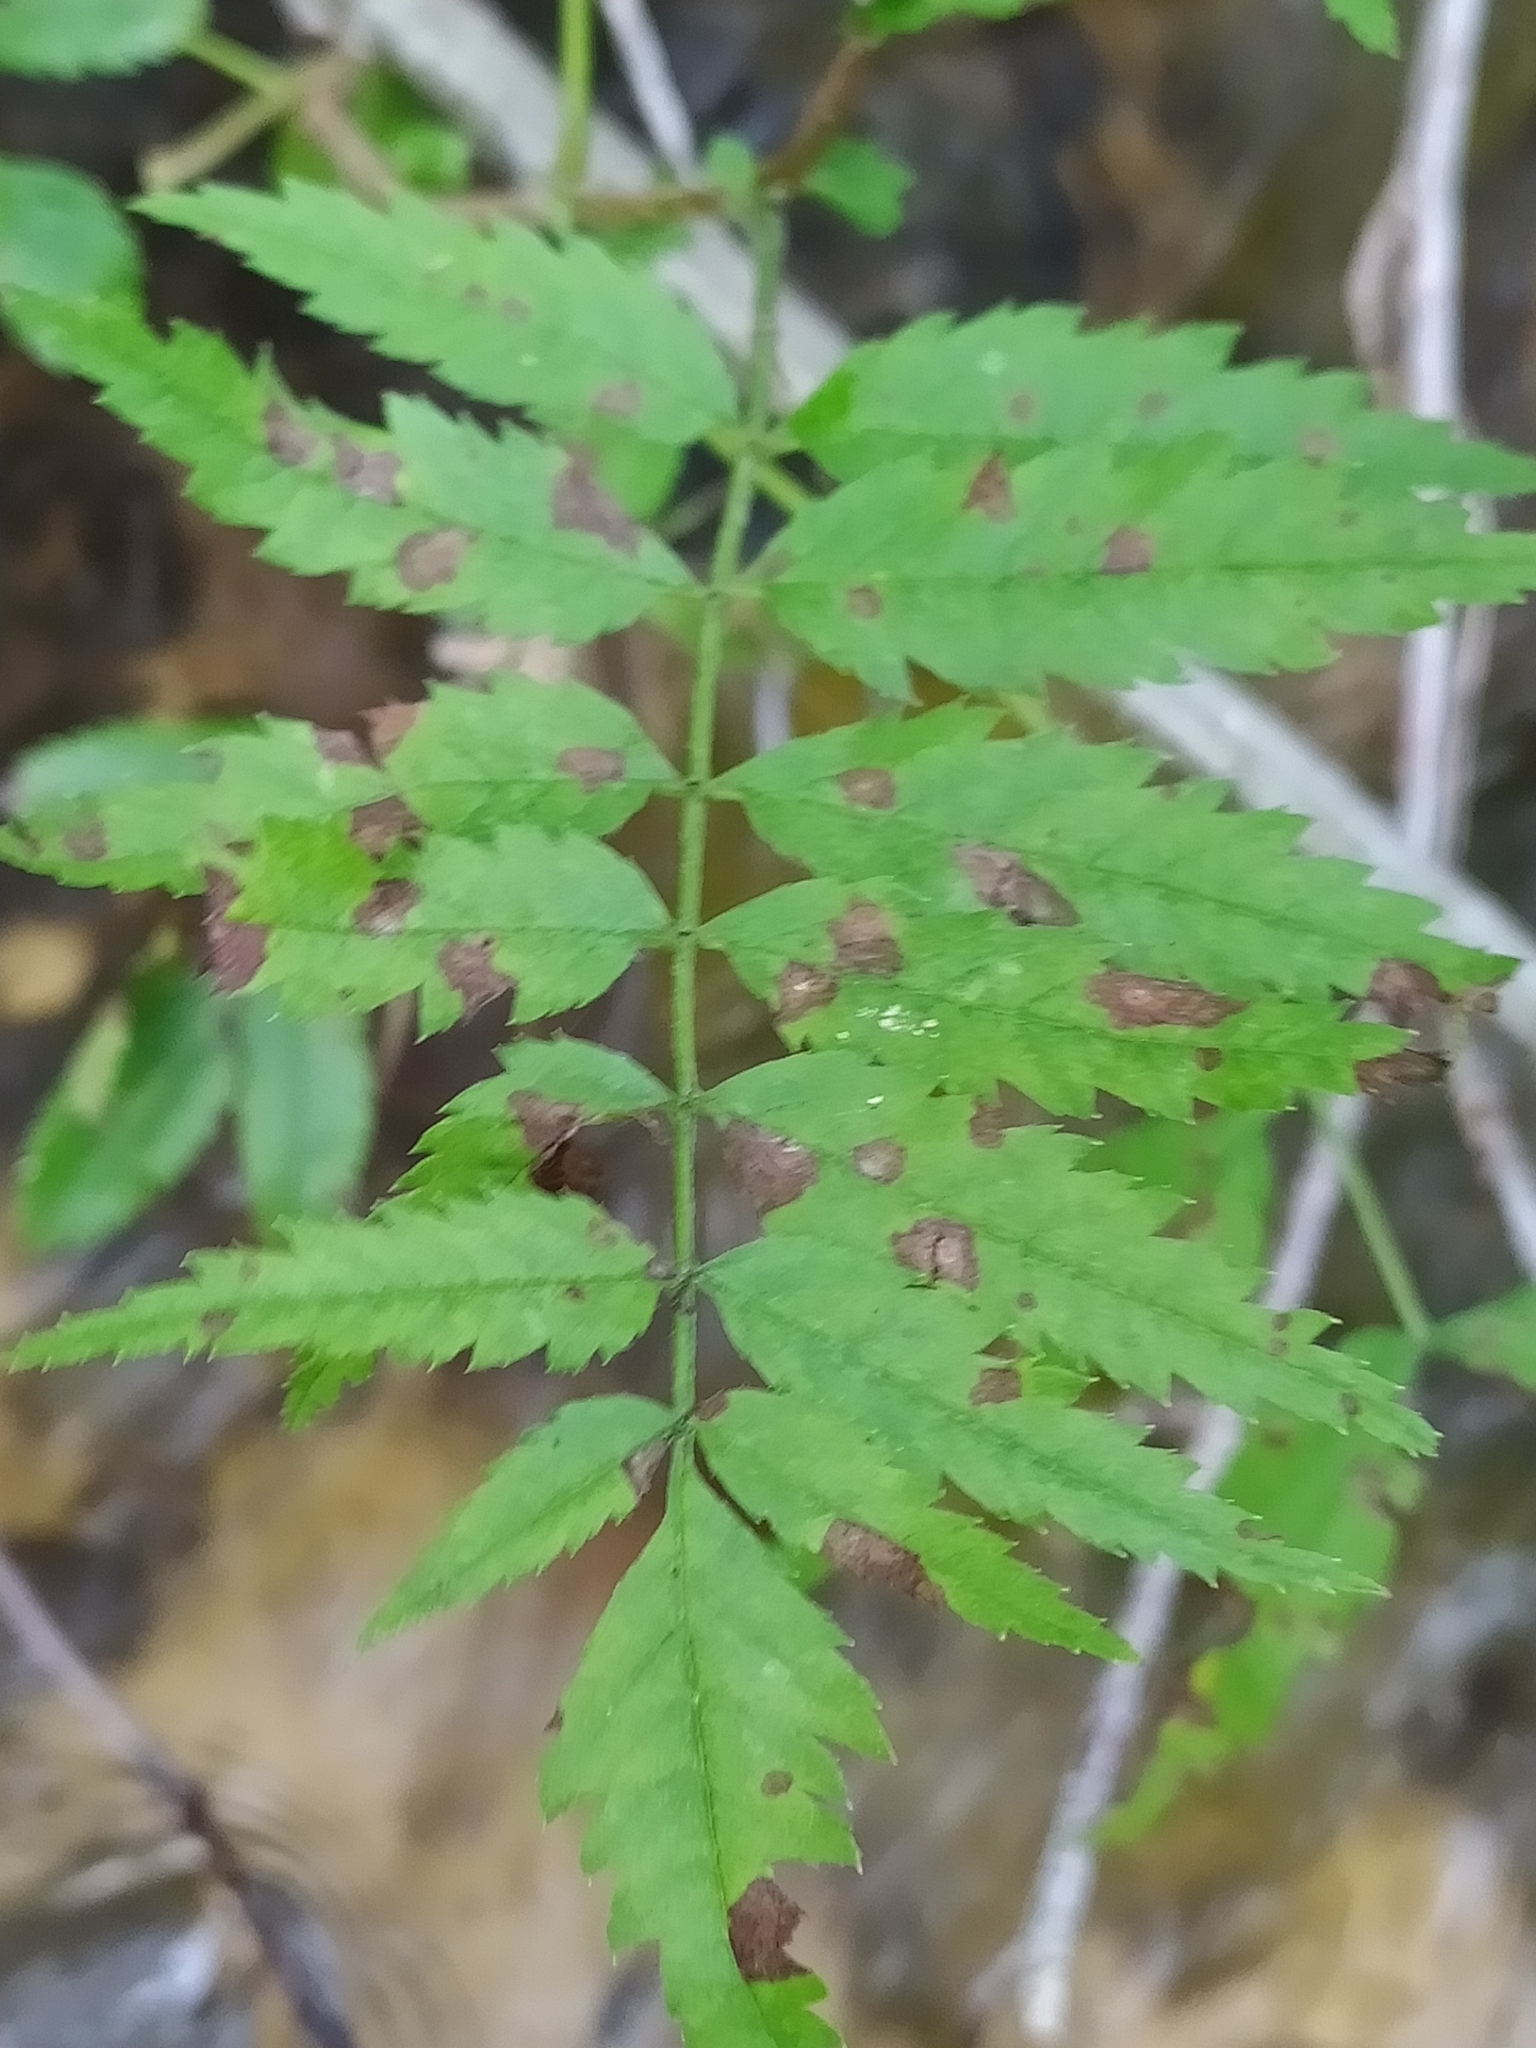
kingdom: Plantae
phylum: Tracheophyta
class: Magnoliopsida
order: Rosales
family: Rosaceae
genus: Sorbus
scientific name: Sorbus aucuparia
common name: Rowan
